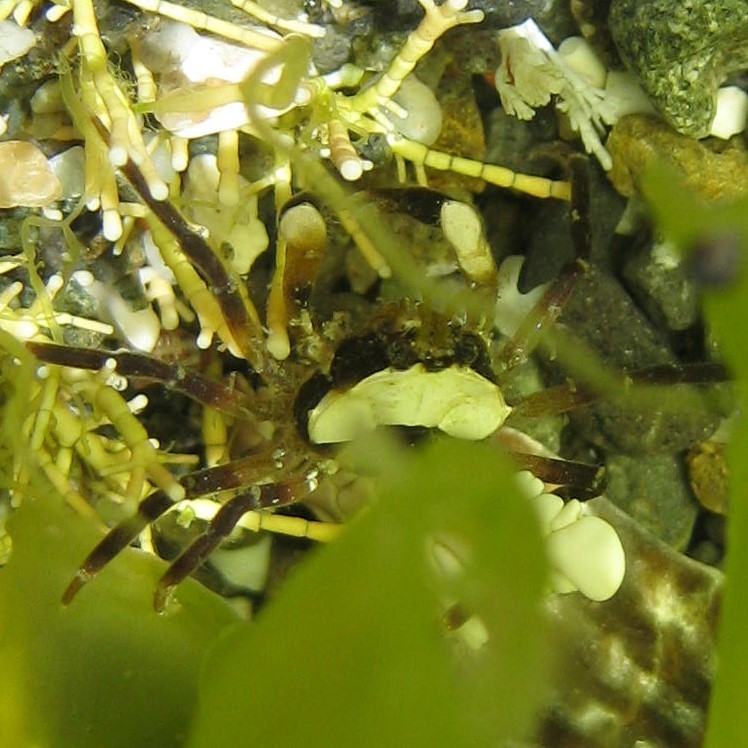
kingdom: Animalia
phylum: Arthropoda
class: Malacostraca
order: Decapoda
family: Hymenosomatidae
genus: Halicarcinus
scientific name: Halicarcinus cookii
